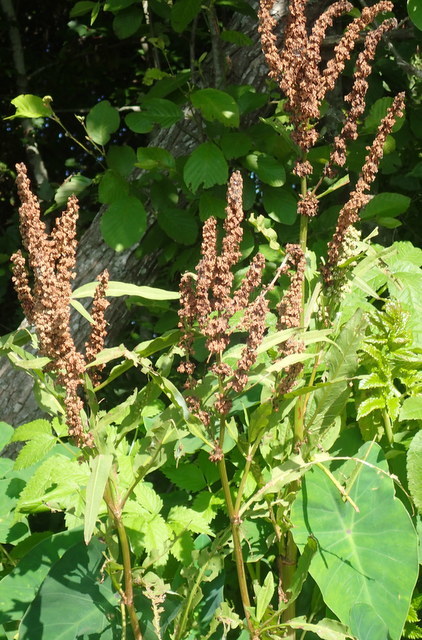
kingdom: Plantae
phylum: Tracheophyta
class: Magnoliopsida
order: Caryophyllales
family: Polygonaceae
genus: Rumex
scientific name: Rumex verticillatus
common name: Swamp dock
